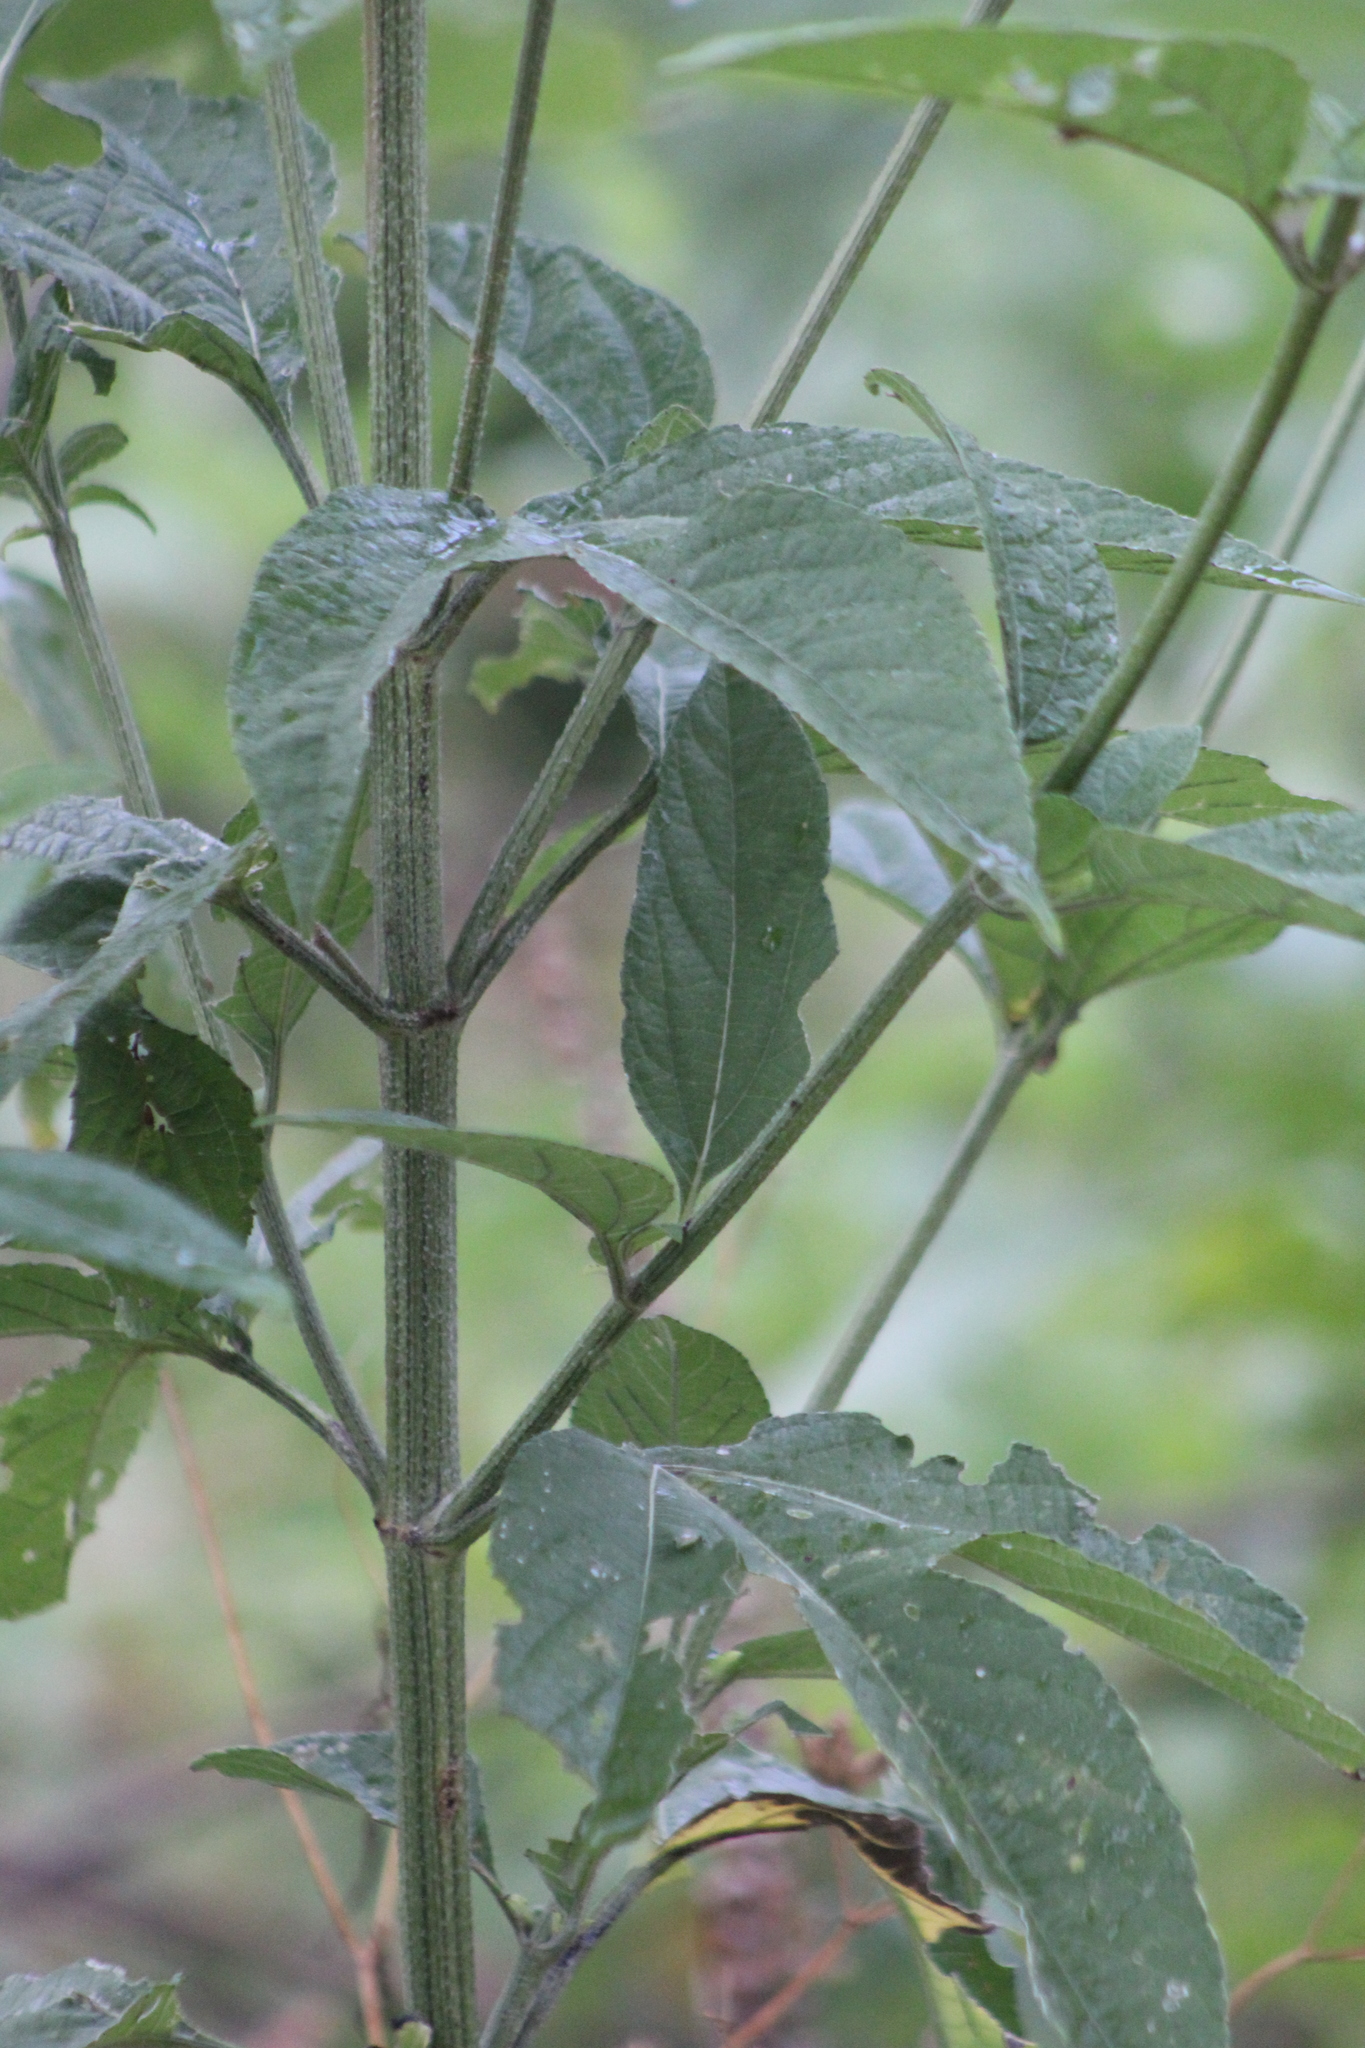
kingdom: Plantae
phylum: Tracheophyta
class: Magnoliopsida
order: Asterales
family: Asteraceae
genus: Ambrosia
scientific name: Ambrosia trifida
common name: Giant ragweed
